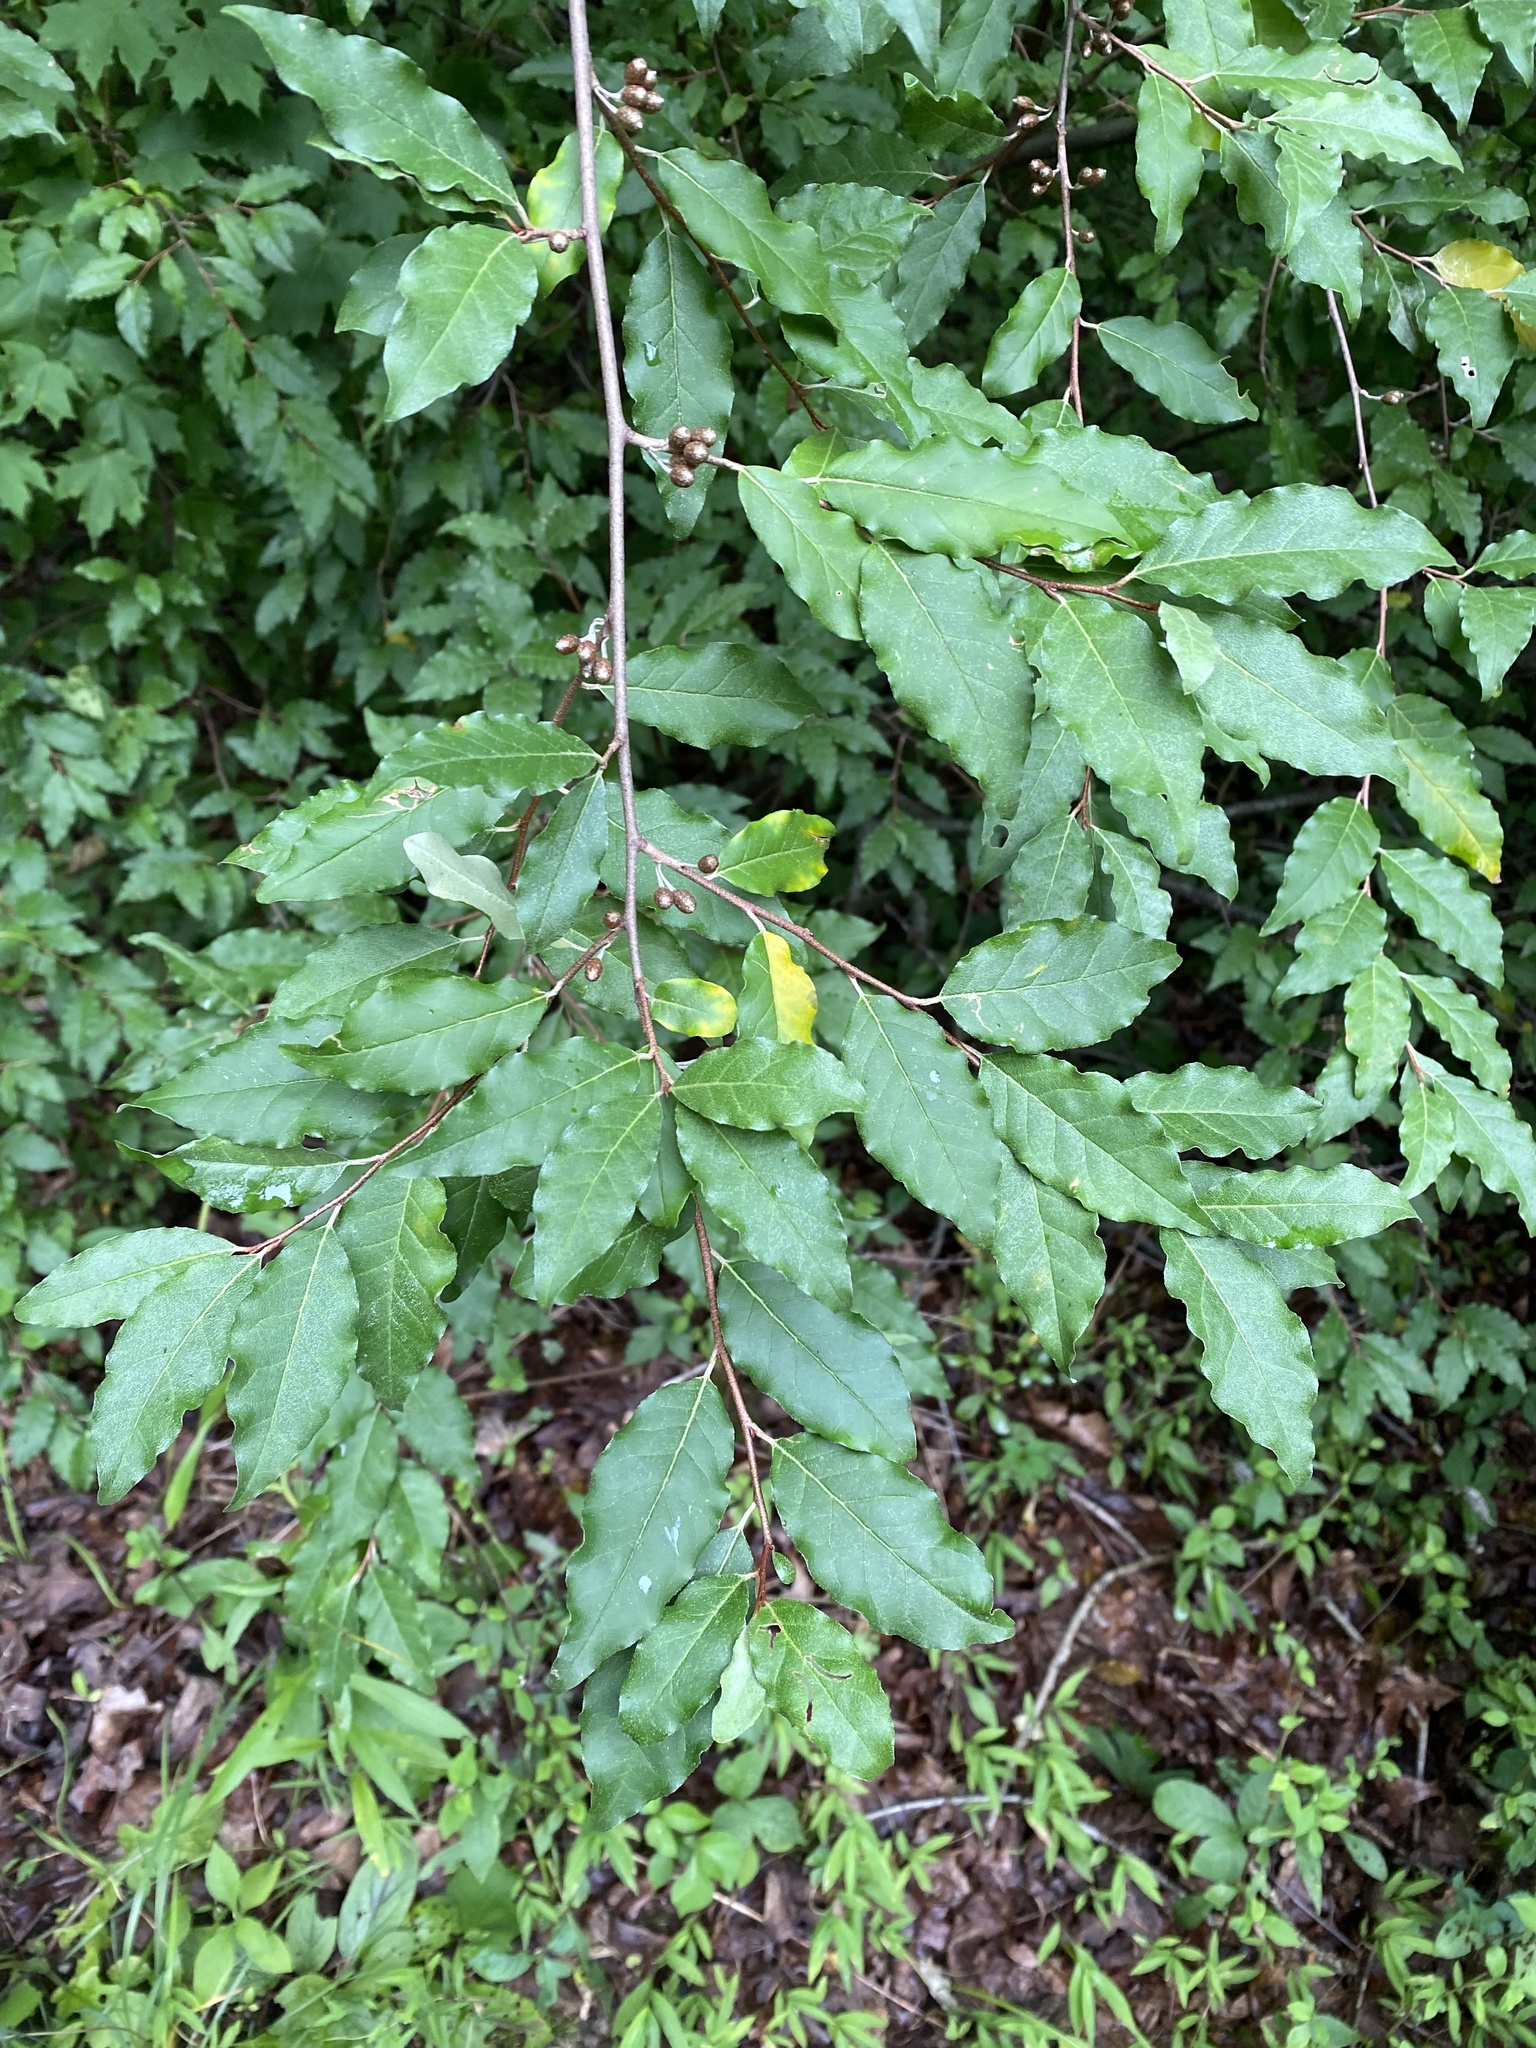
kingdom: Plantae
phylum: Tracheophyta
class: Magnoliopsida
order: Rosales
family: Elaeagnaceae
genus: Elaeagnus
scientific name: Elaeagnus umbellata
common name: Autumn olive
